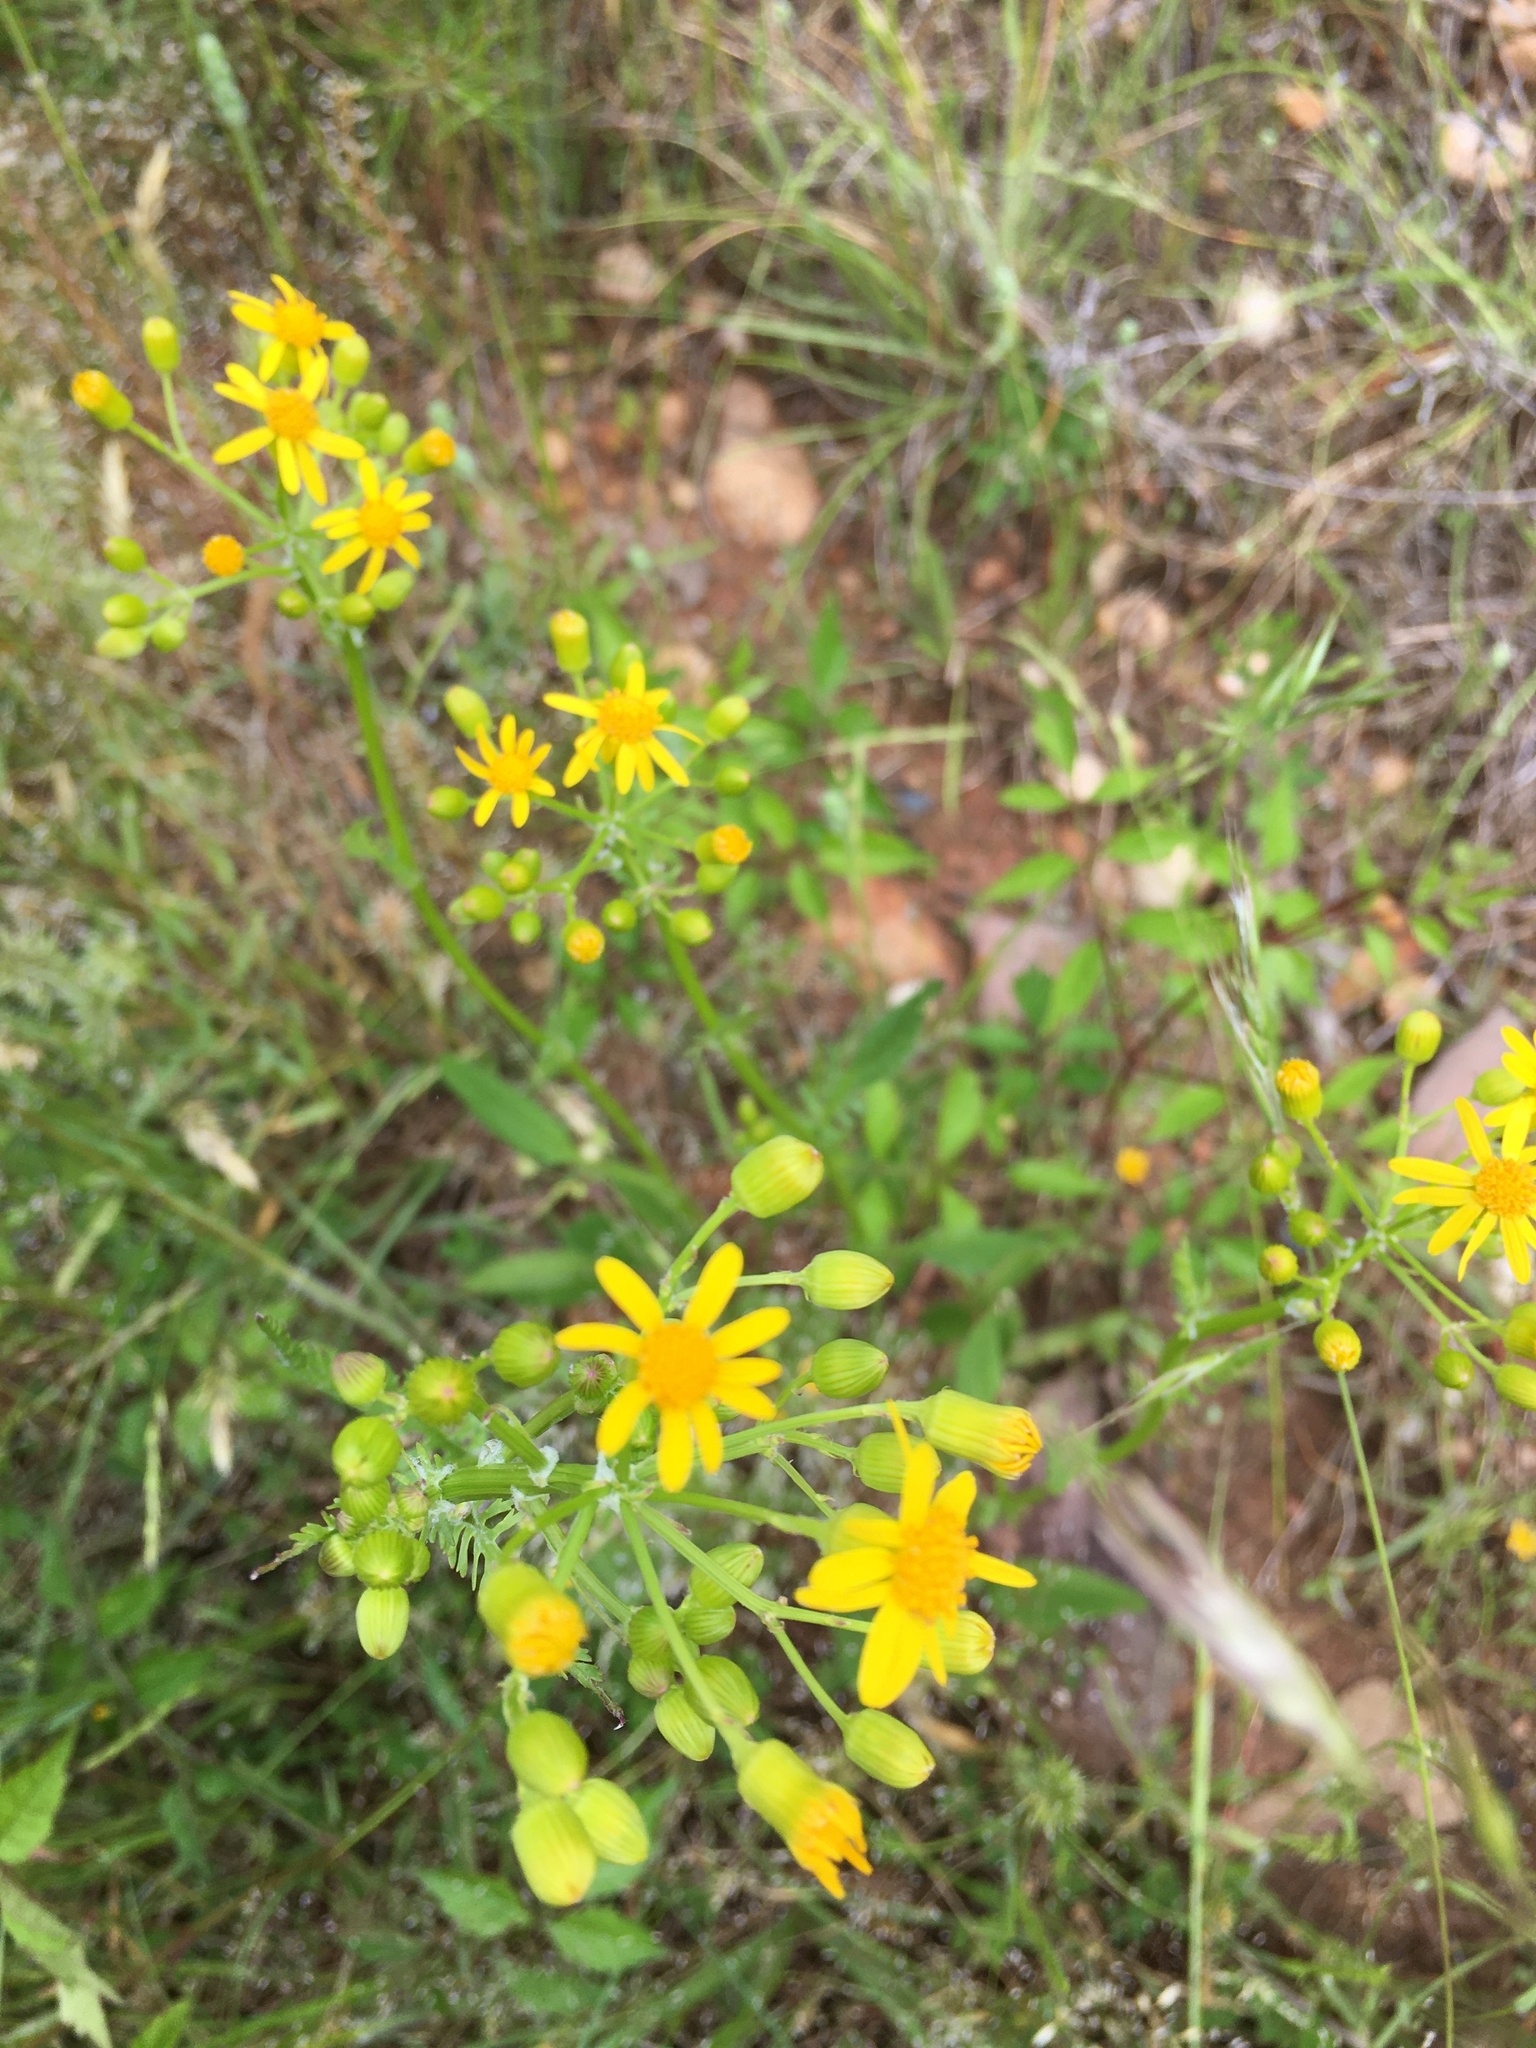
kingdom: Plantae
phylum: Tracheophyta
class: Magnoliopsida
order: Asterales
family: Asteraceae
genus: Packera
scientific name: Packera anonyma
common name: Small ragwort
